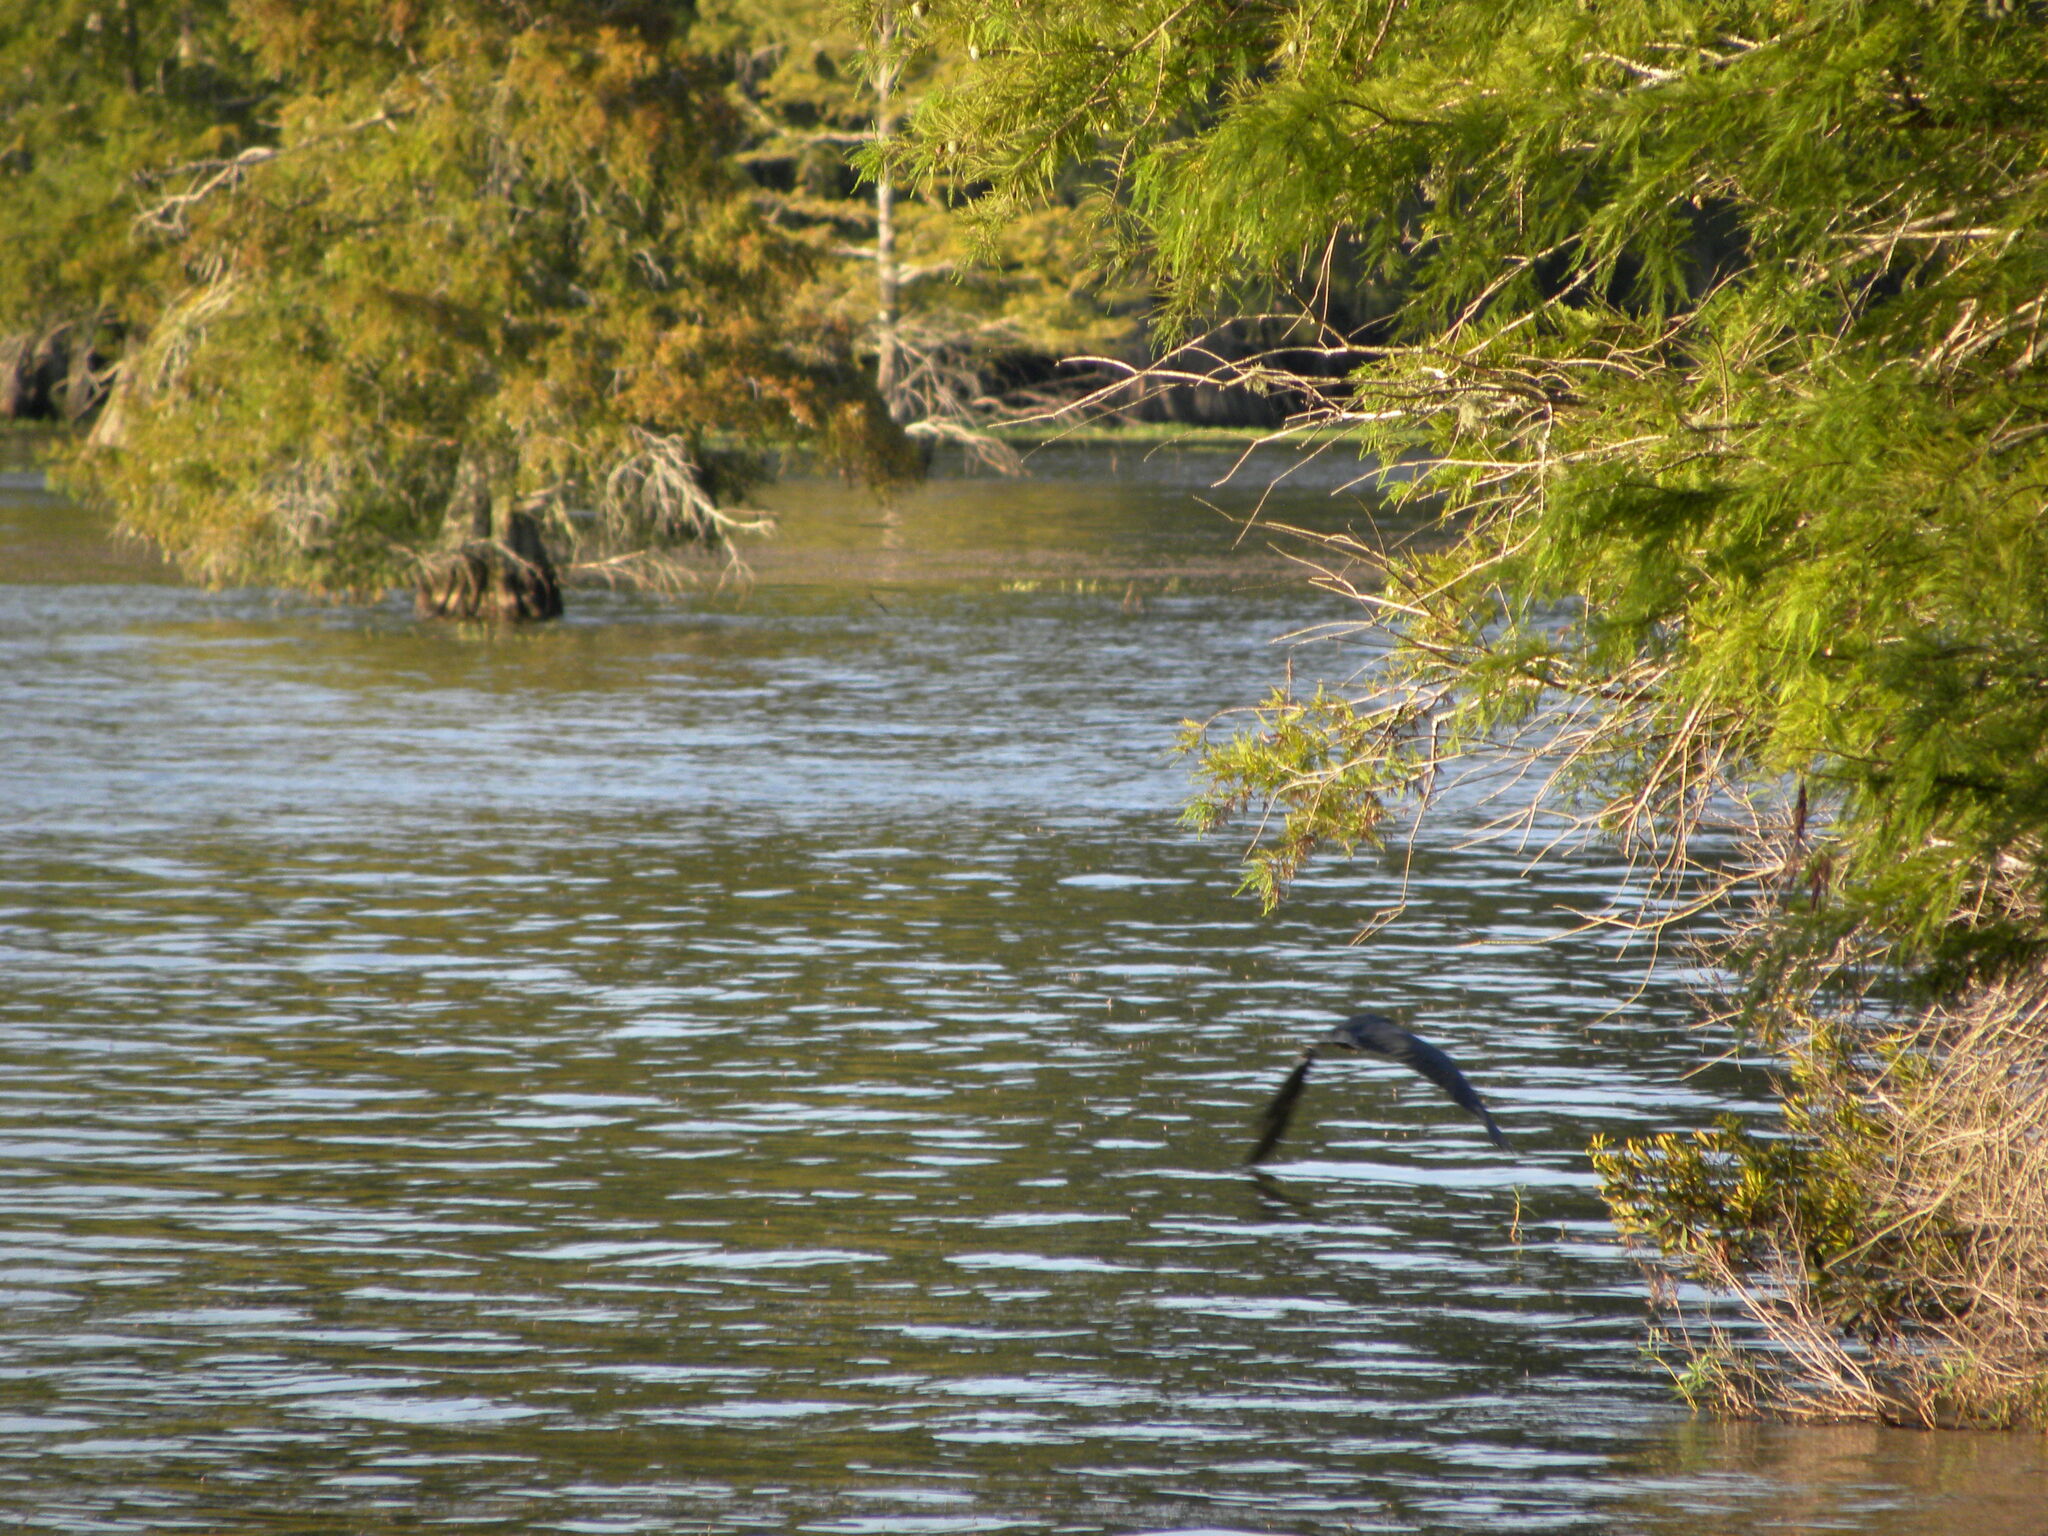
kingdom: Animalia
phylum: Chordata
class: Aves
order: Pelecaniformes
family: Ardeidae
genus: Egretta
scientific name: Egretta caerulea
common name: Little blue heron
